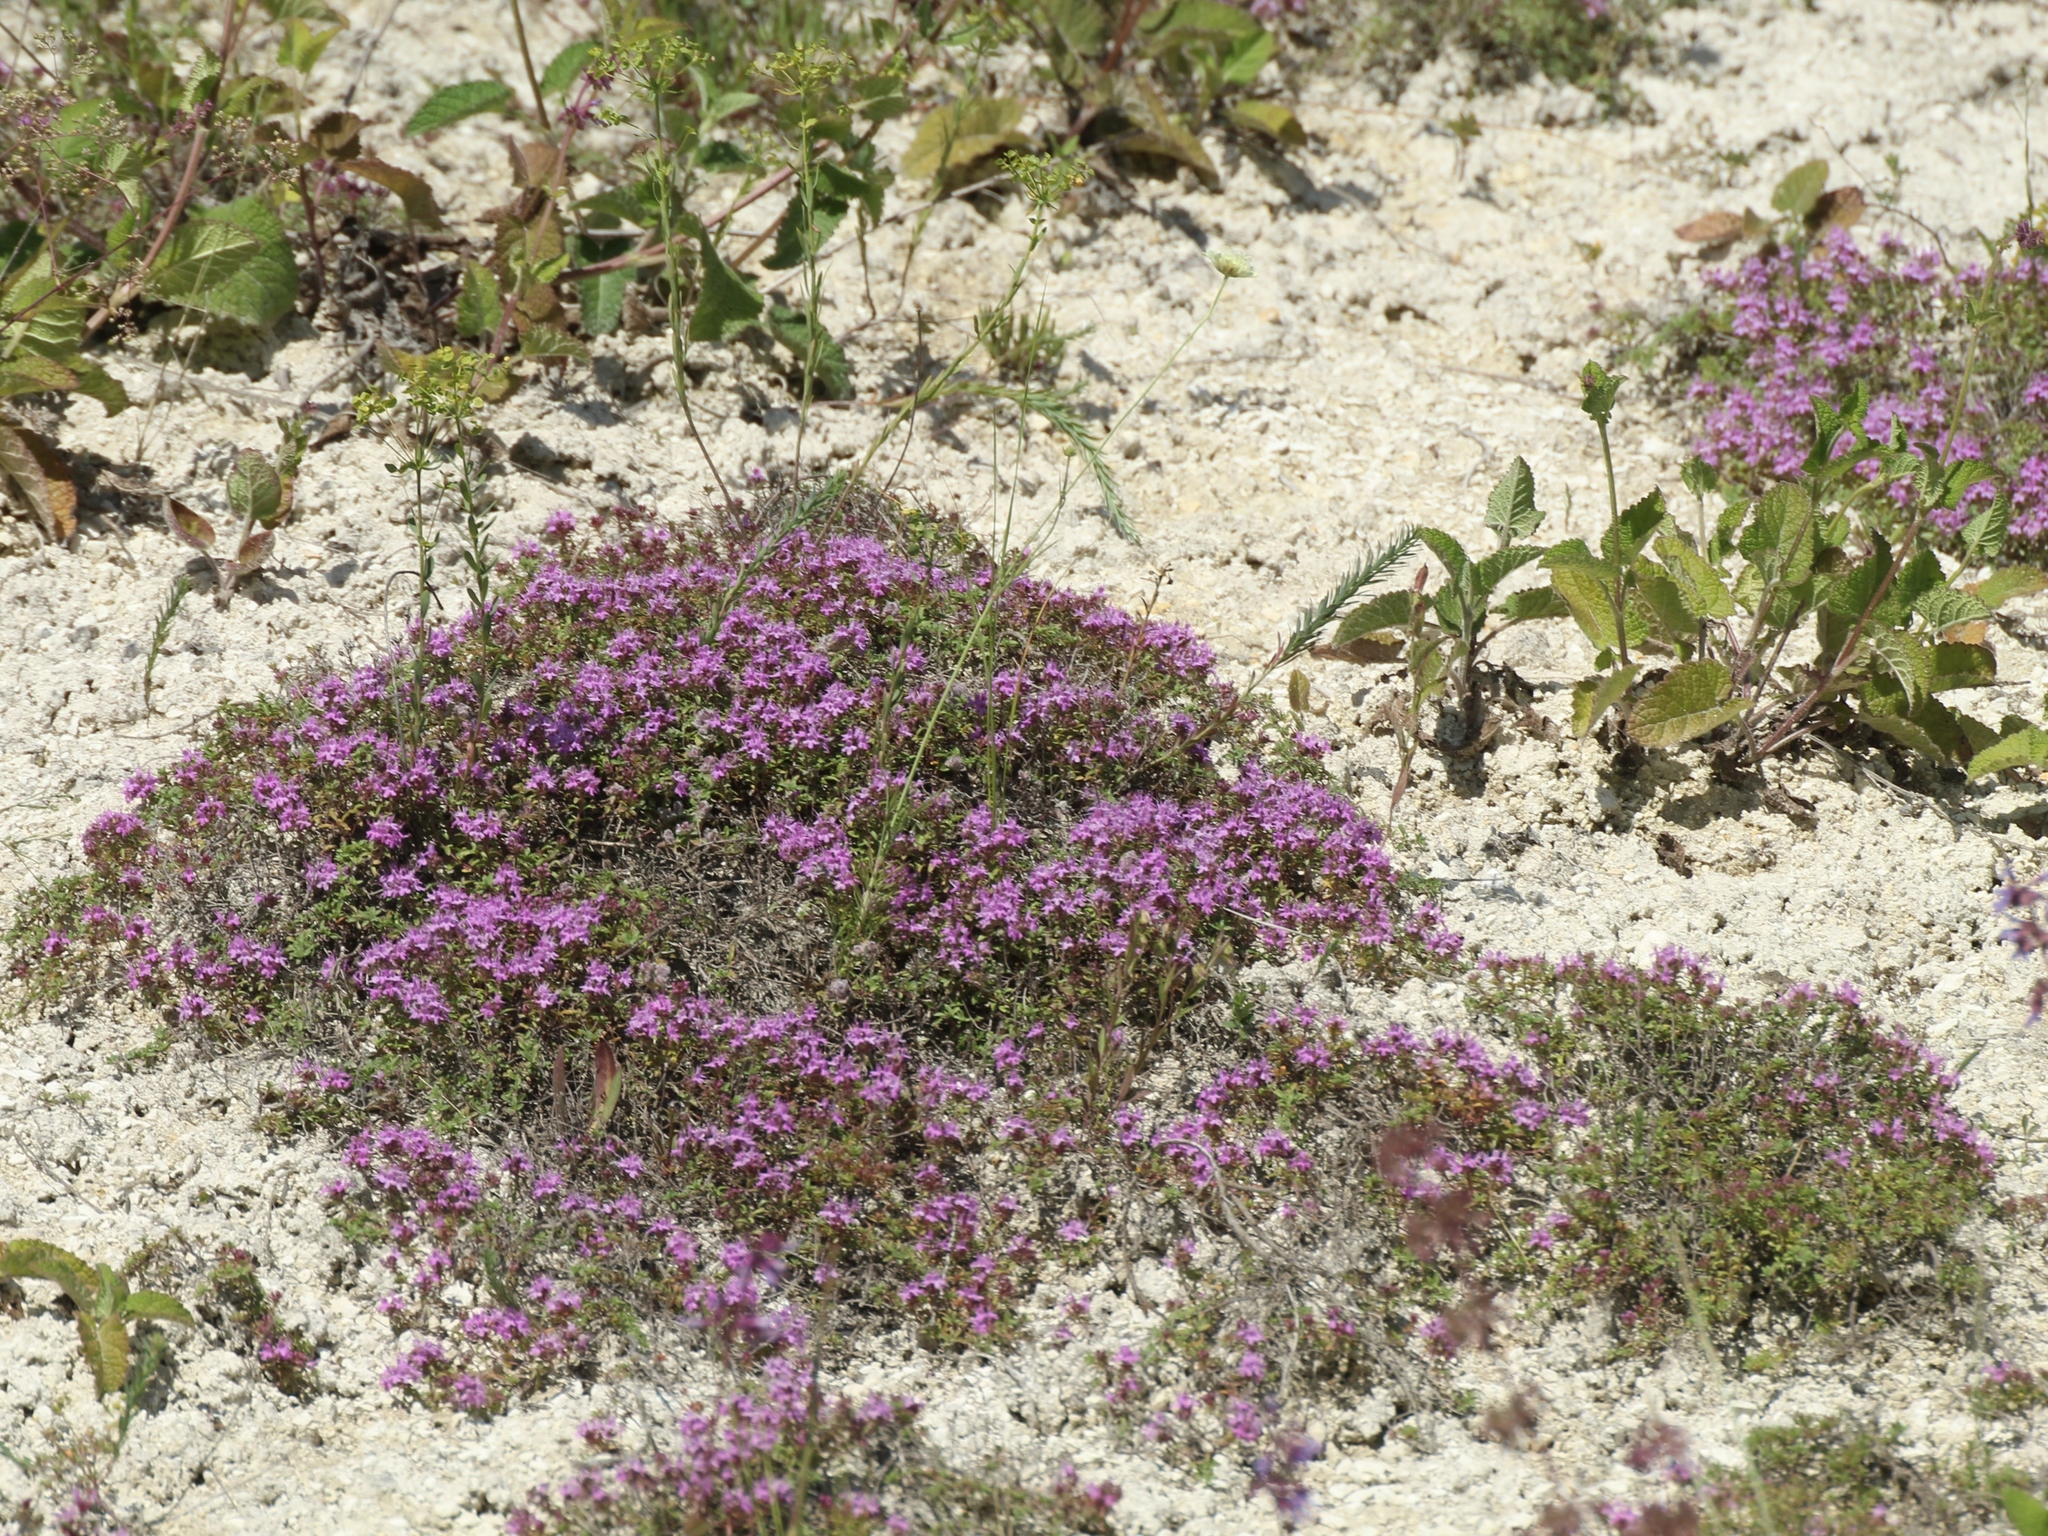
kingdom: Plantae
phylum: Tracheophyta
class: Magnoliopsida
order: Lamiales
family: Lamiaceae
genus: Thymus
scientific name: Thymus calcareus
